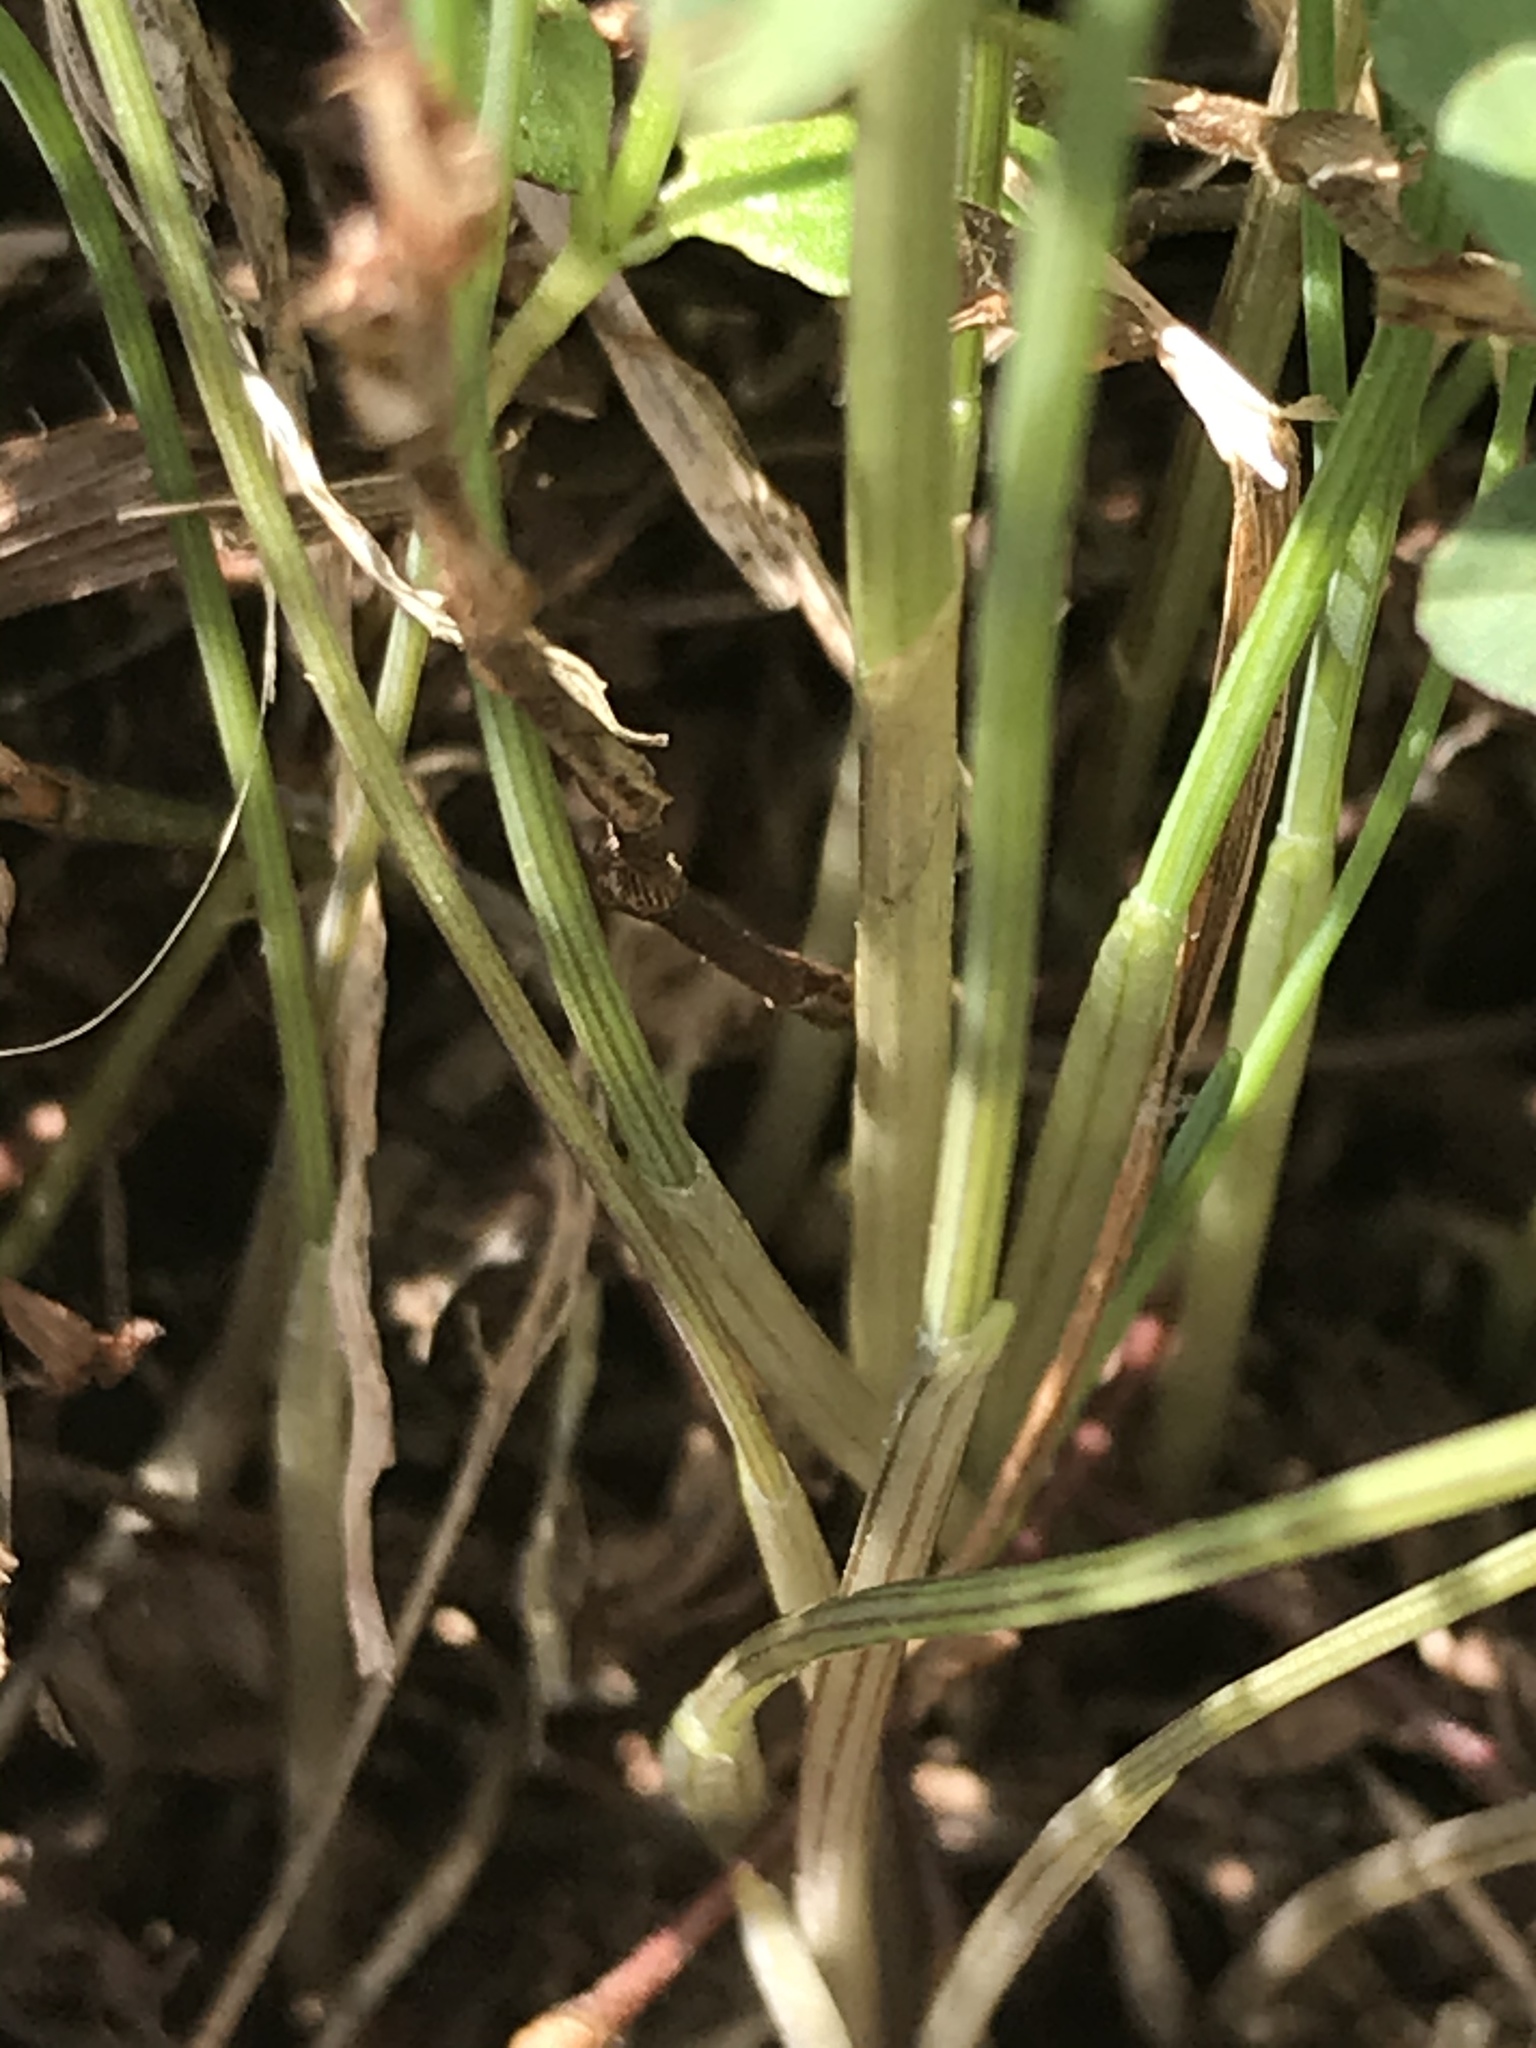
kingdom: Plantae
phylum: Tracheophyta
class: Liliopsida
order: Asparagales
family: Amaryllidaceae
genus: Allium
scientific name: Allium vineale
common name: Crow garlic
